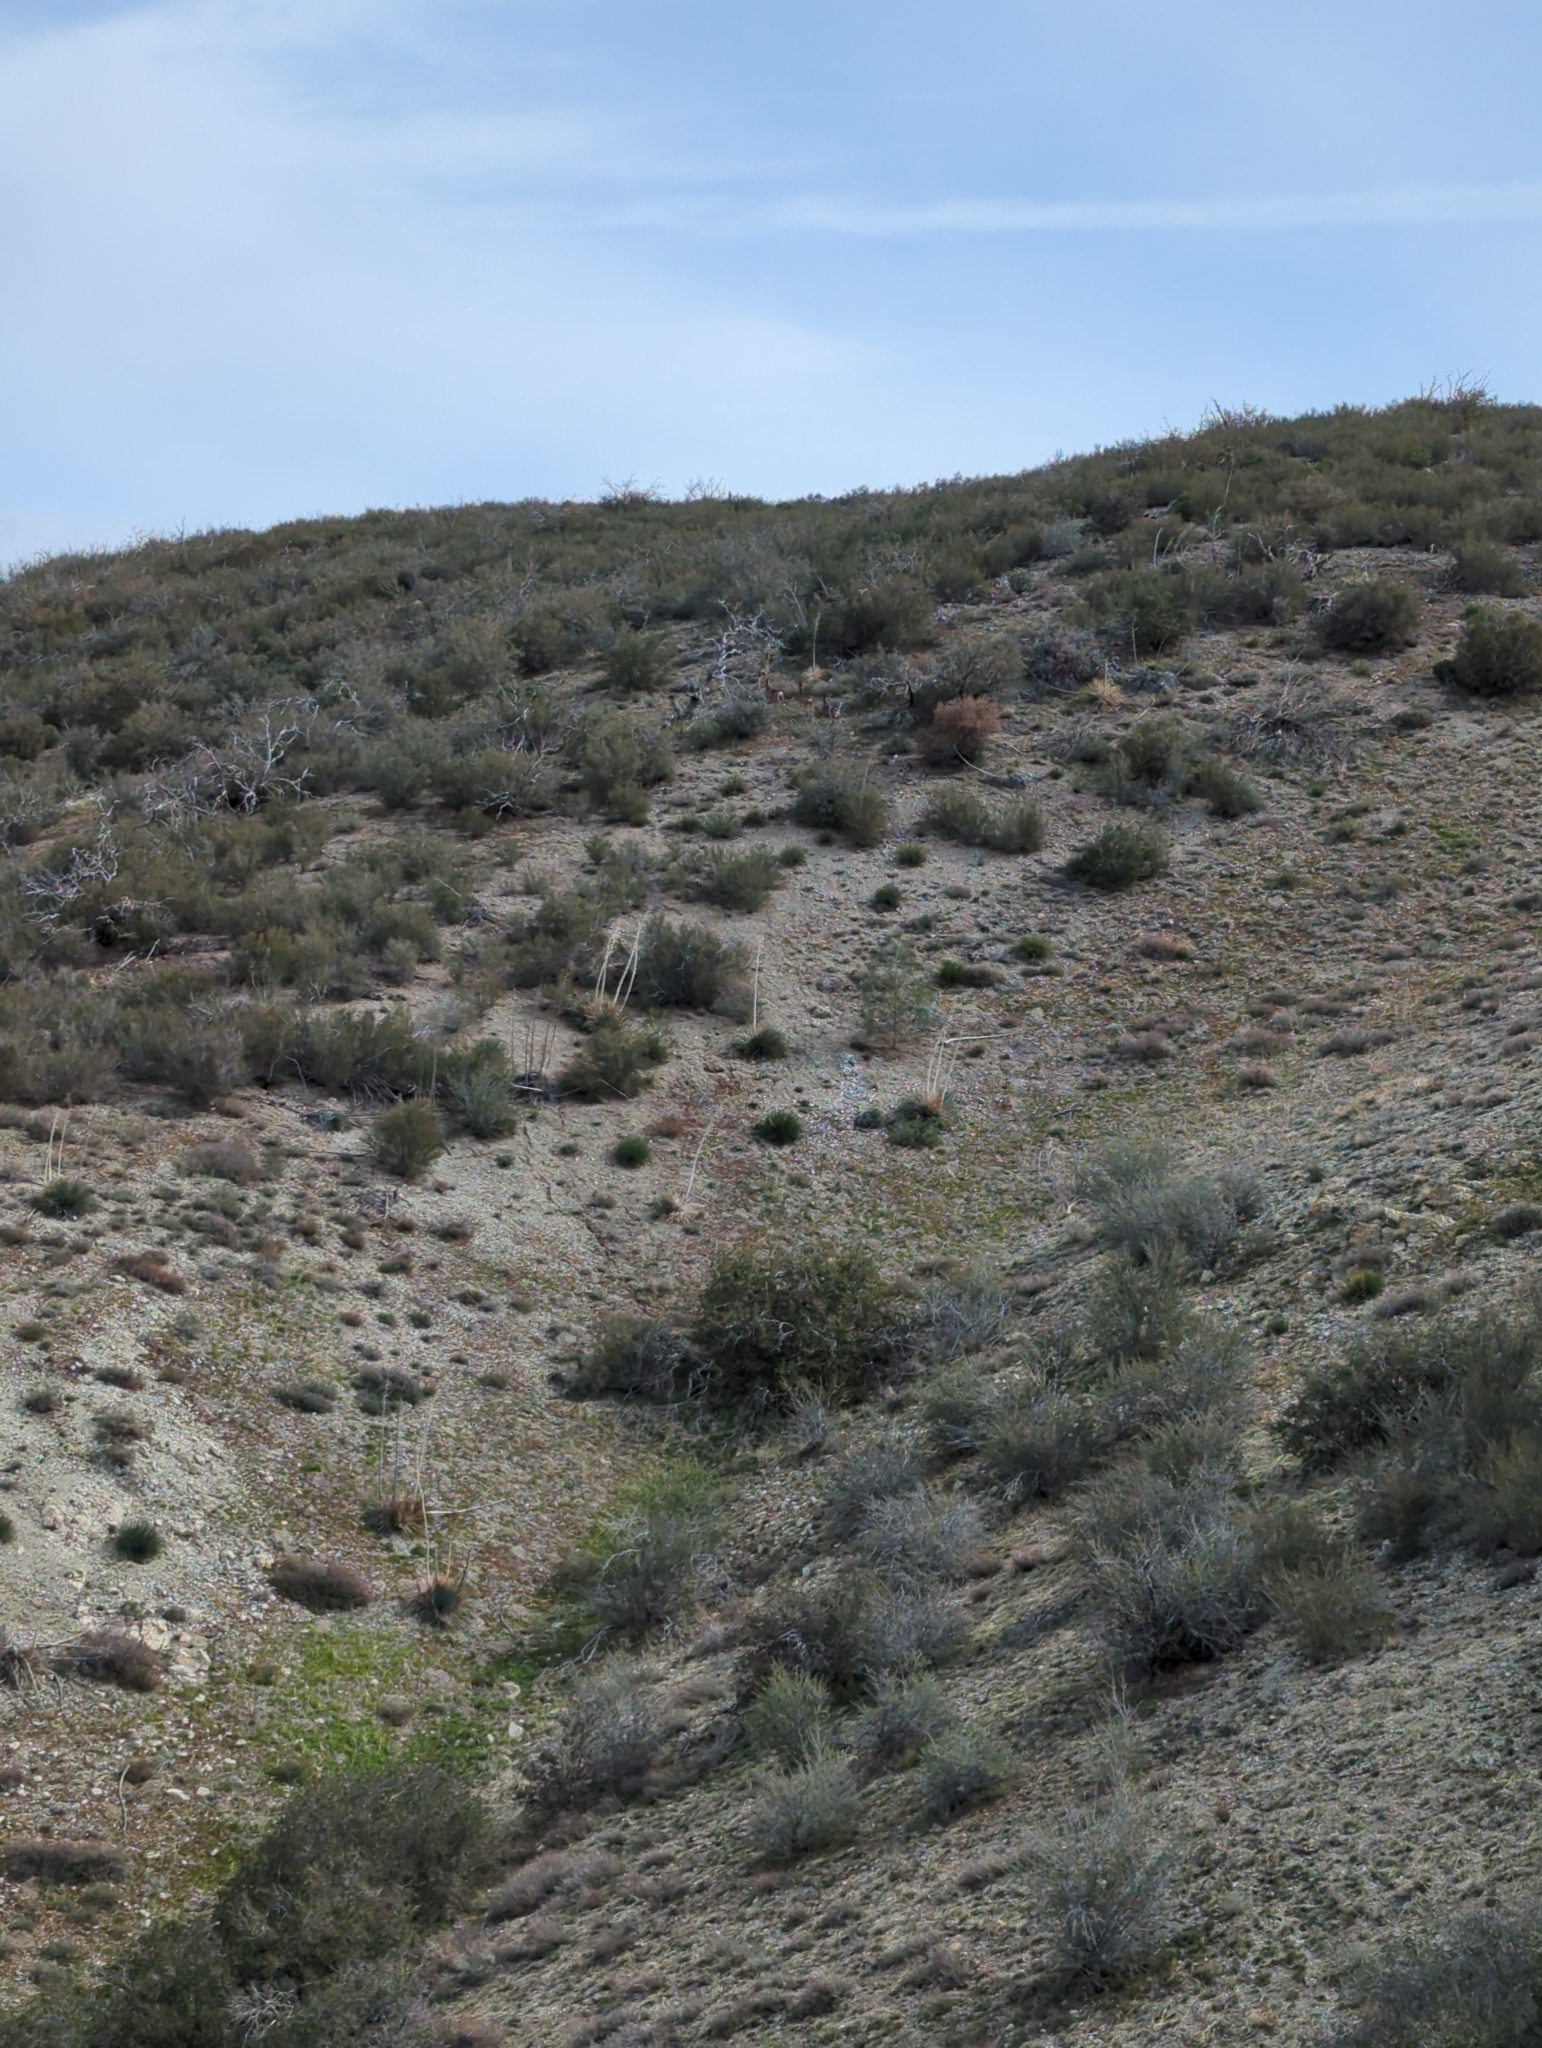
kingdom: Animalia
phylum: Chordata
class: Mammalia
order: Artiodactyla
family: Cervidae
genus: Odocoileus
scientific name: Odocoileus hemionus
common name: Mule deer
